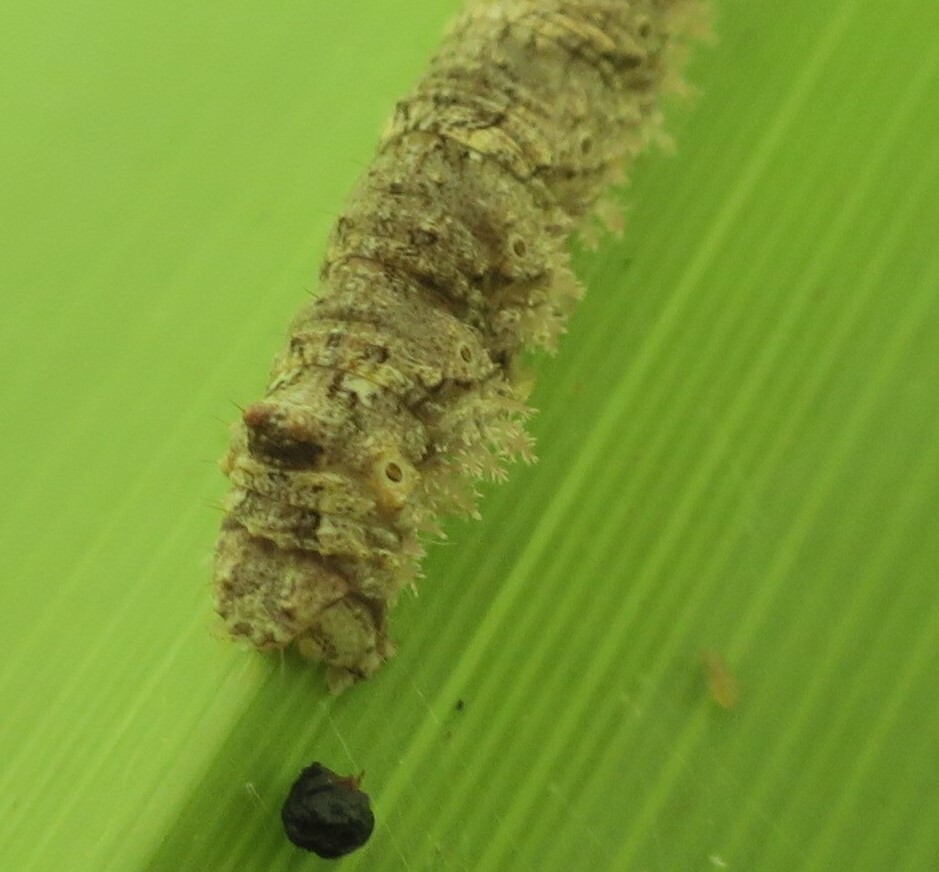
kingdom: Animalia
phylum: Arthropoda
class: Insecta
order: Lepidoptera
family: Geometridae
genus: Declana
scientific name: Declana floccosa
